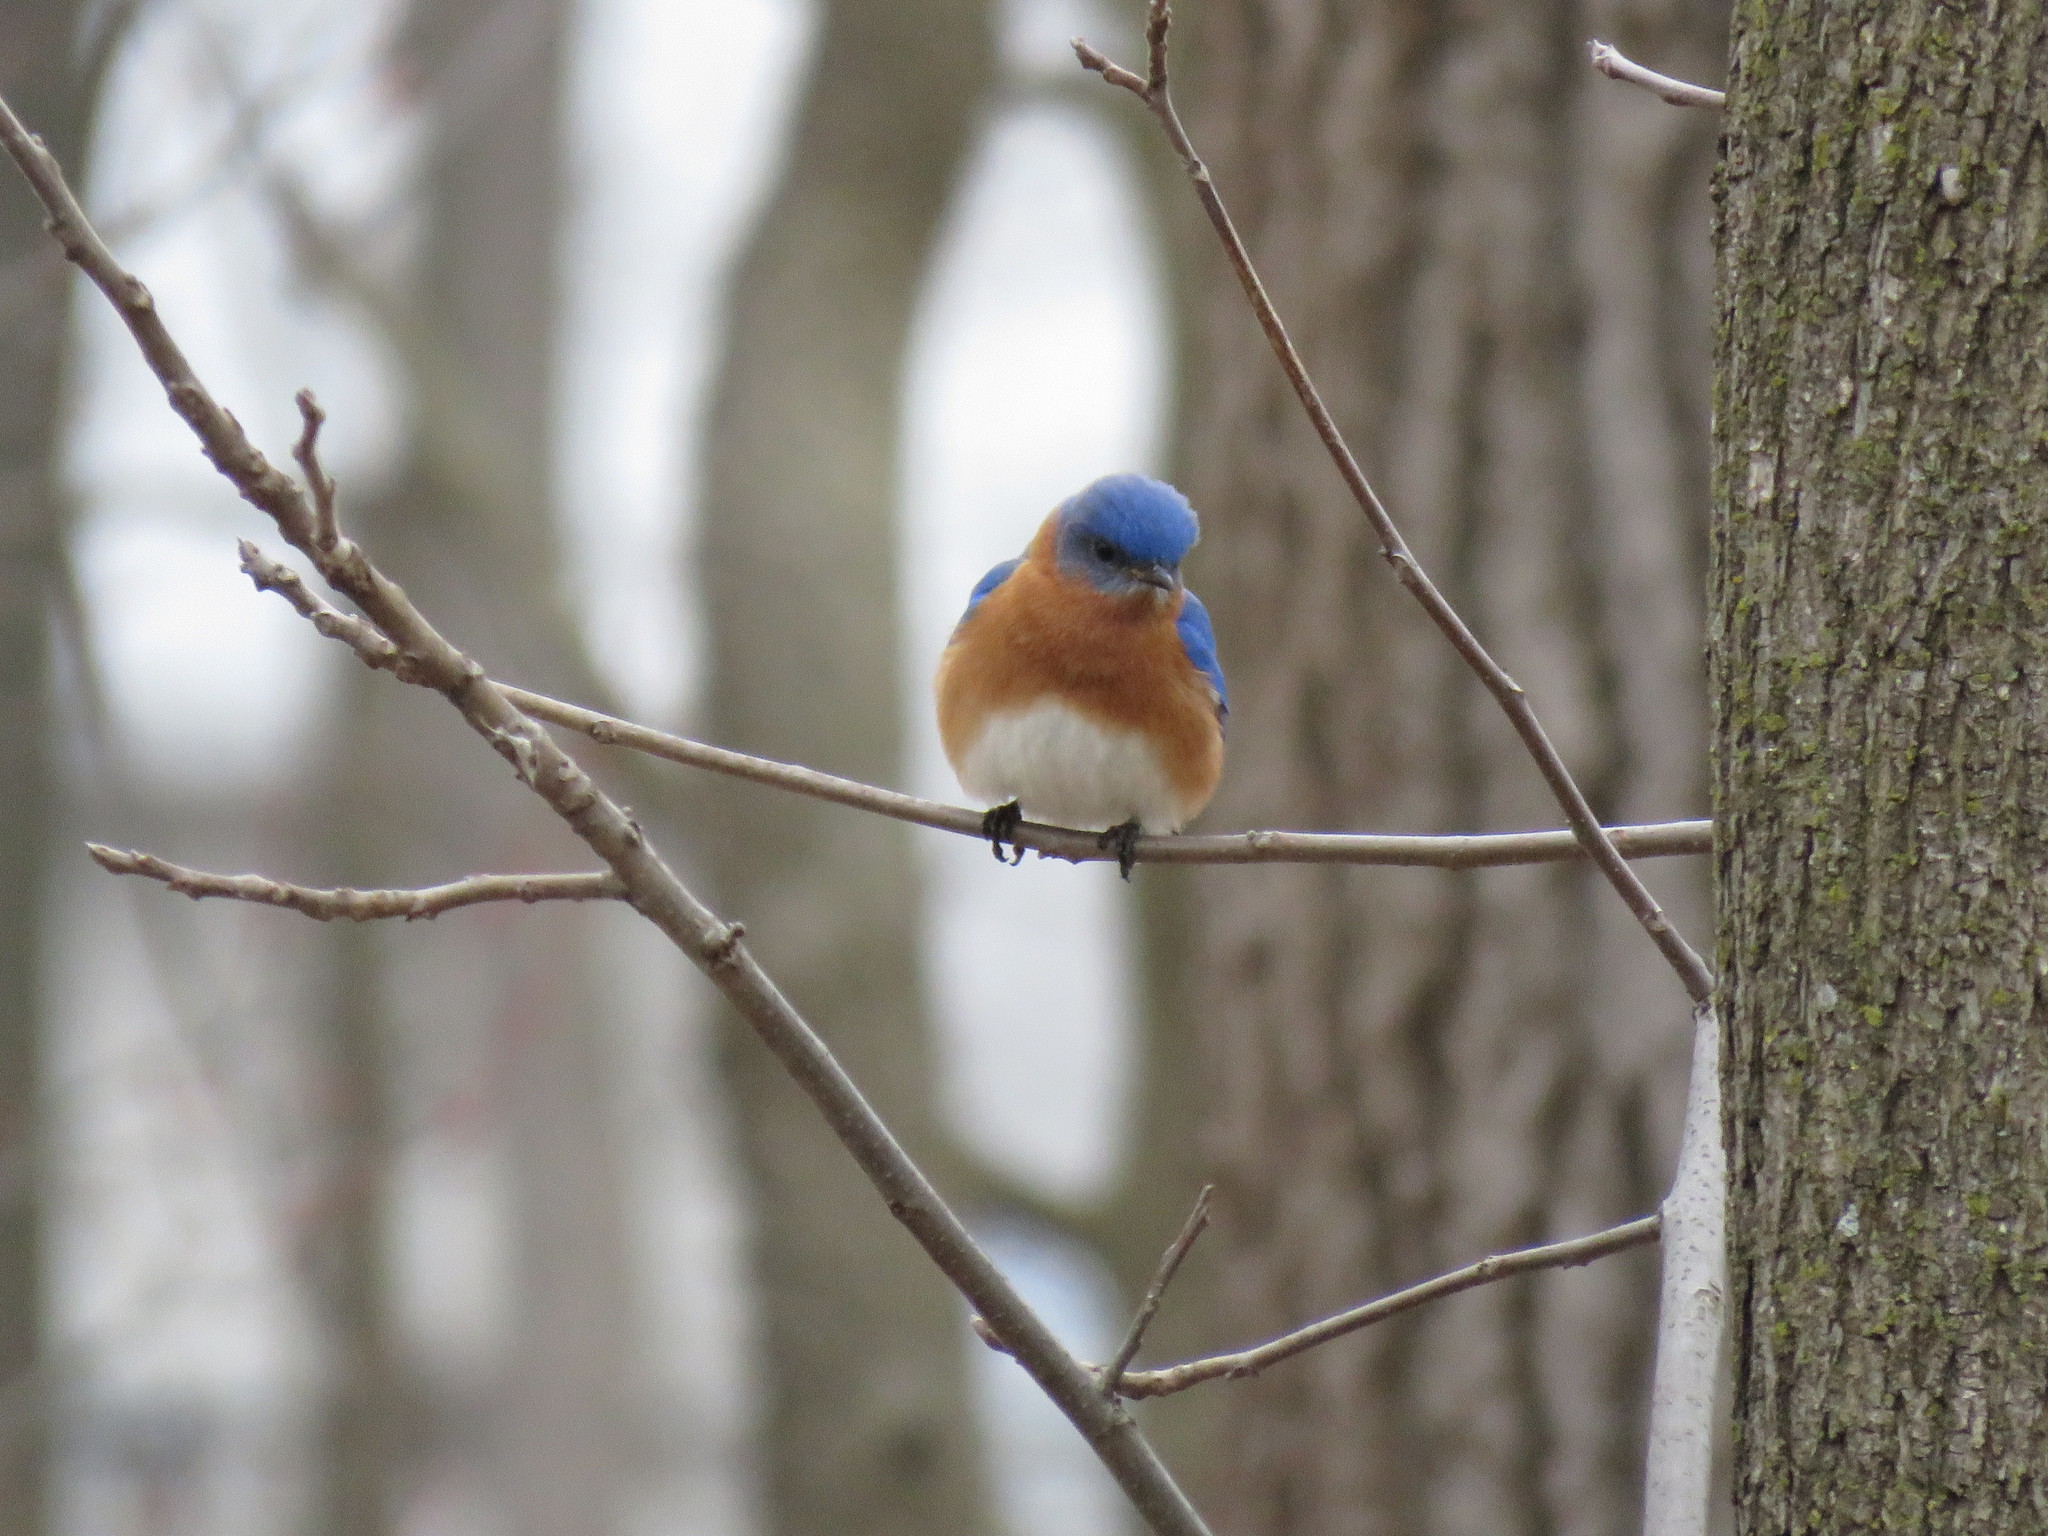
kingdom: Animalia
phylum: Chordata
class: Aves
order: Passeriformes
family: Turdidae
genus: Sialia
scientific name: Sialia sialis
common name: Eastern bluebird
